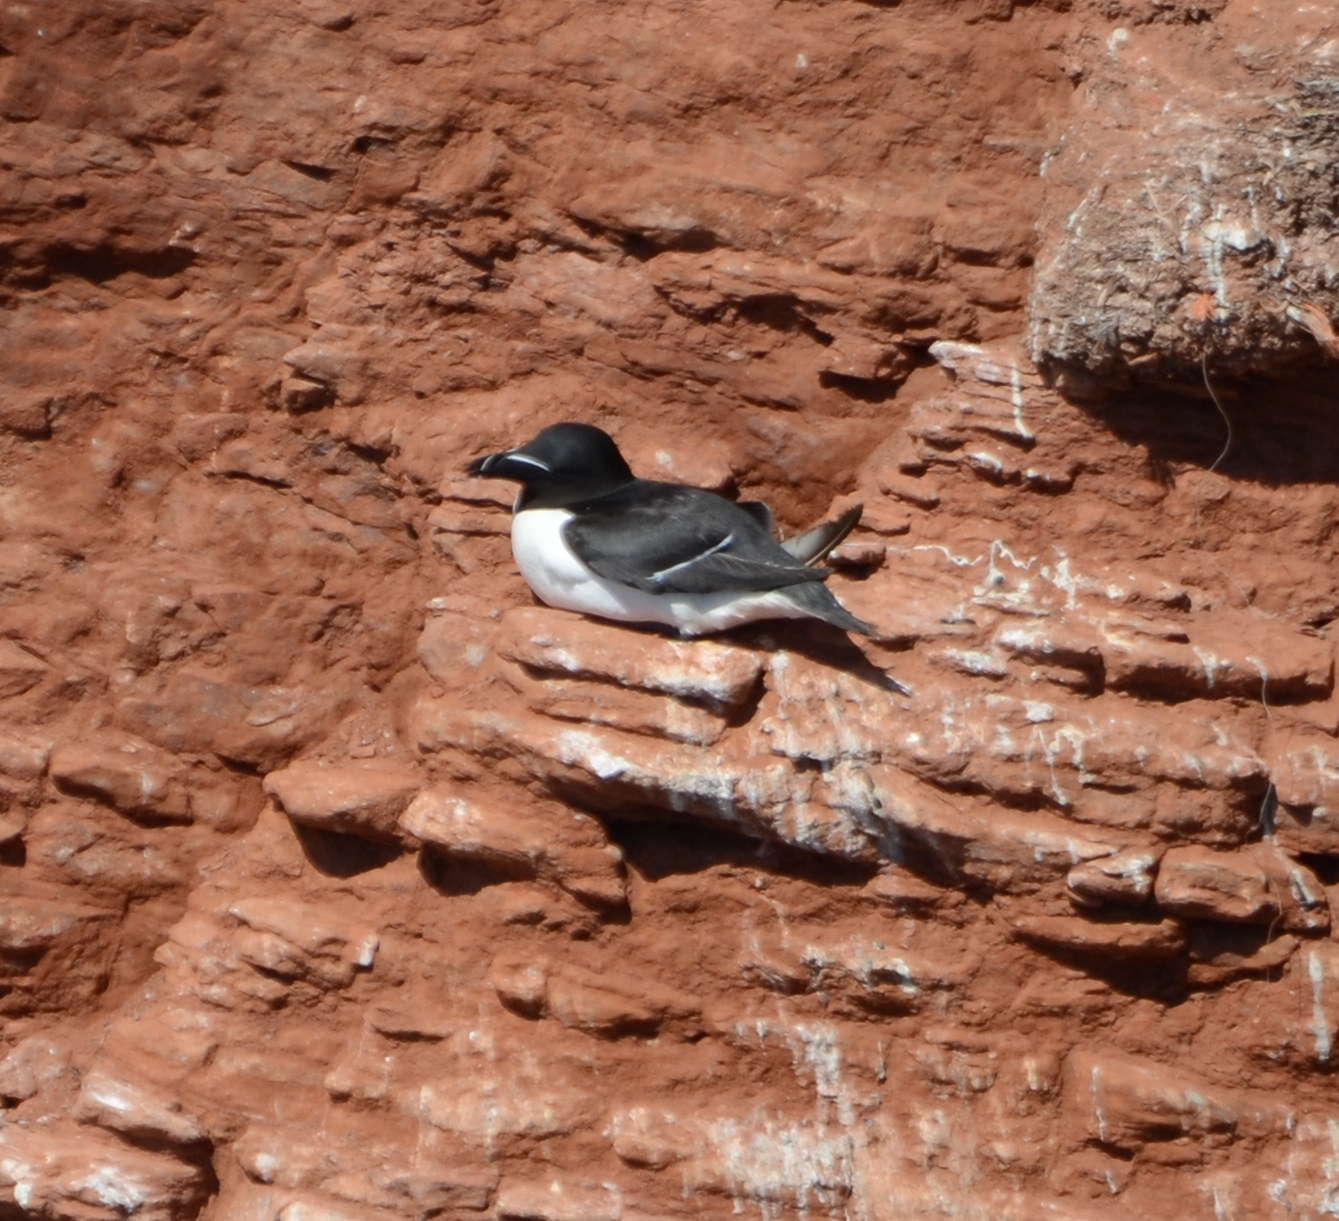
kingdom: Animalia
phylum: Chordata
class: Aves
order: Charadriiformes
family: Alcidae
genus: Alca
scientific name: Alca torda
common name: Razorbill
